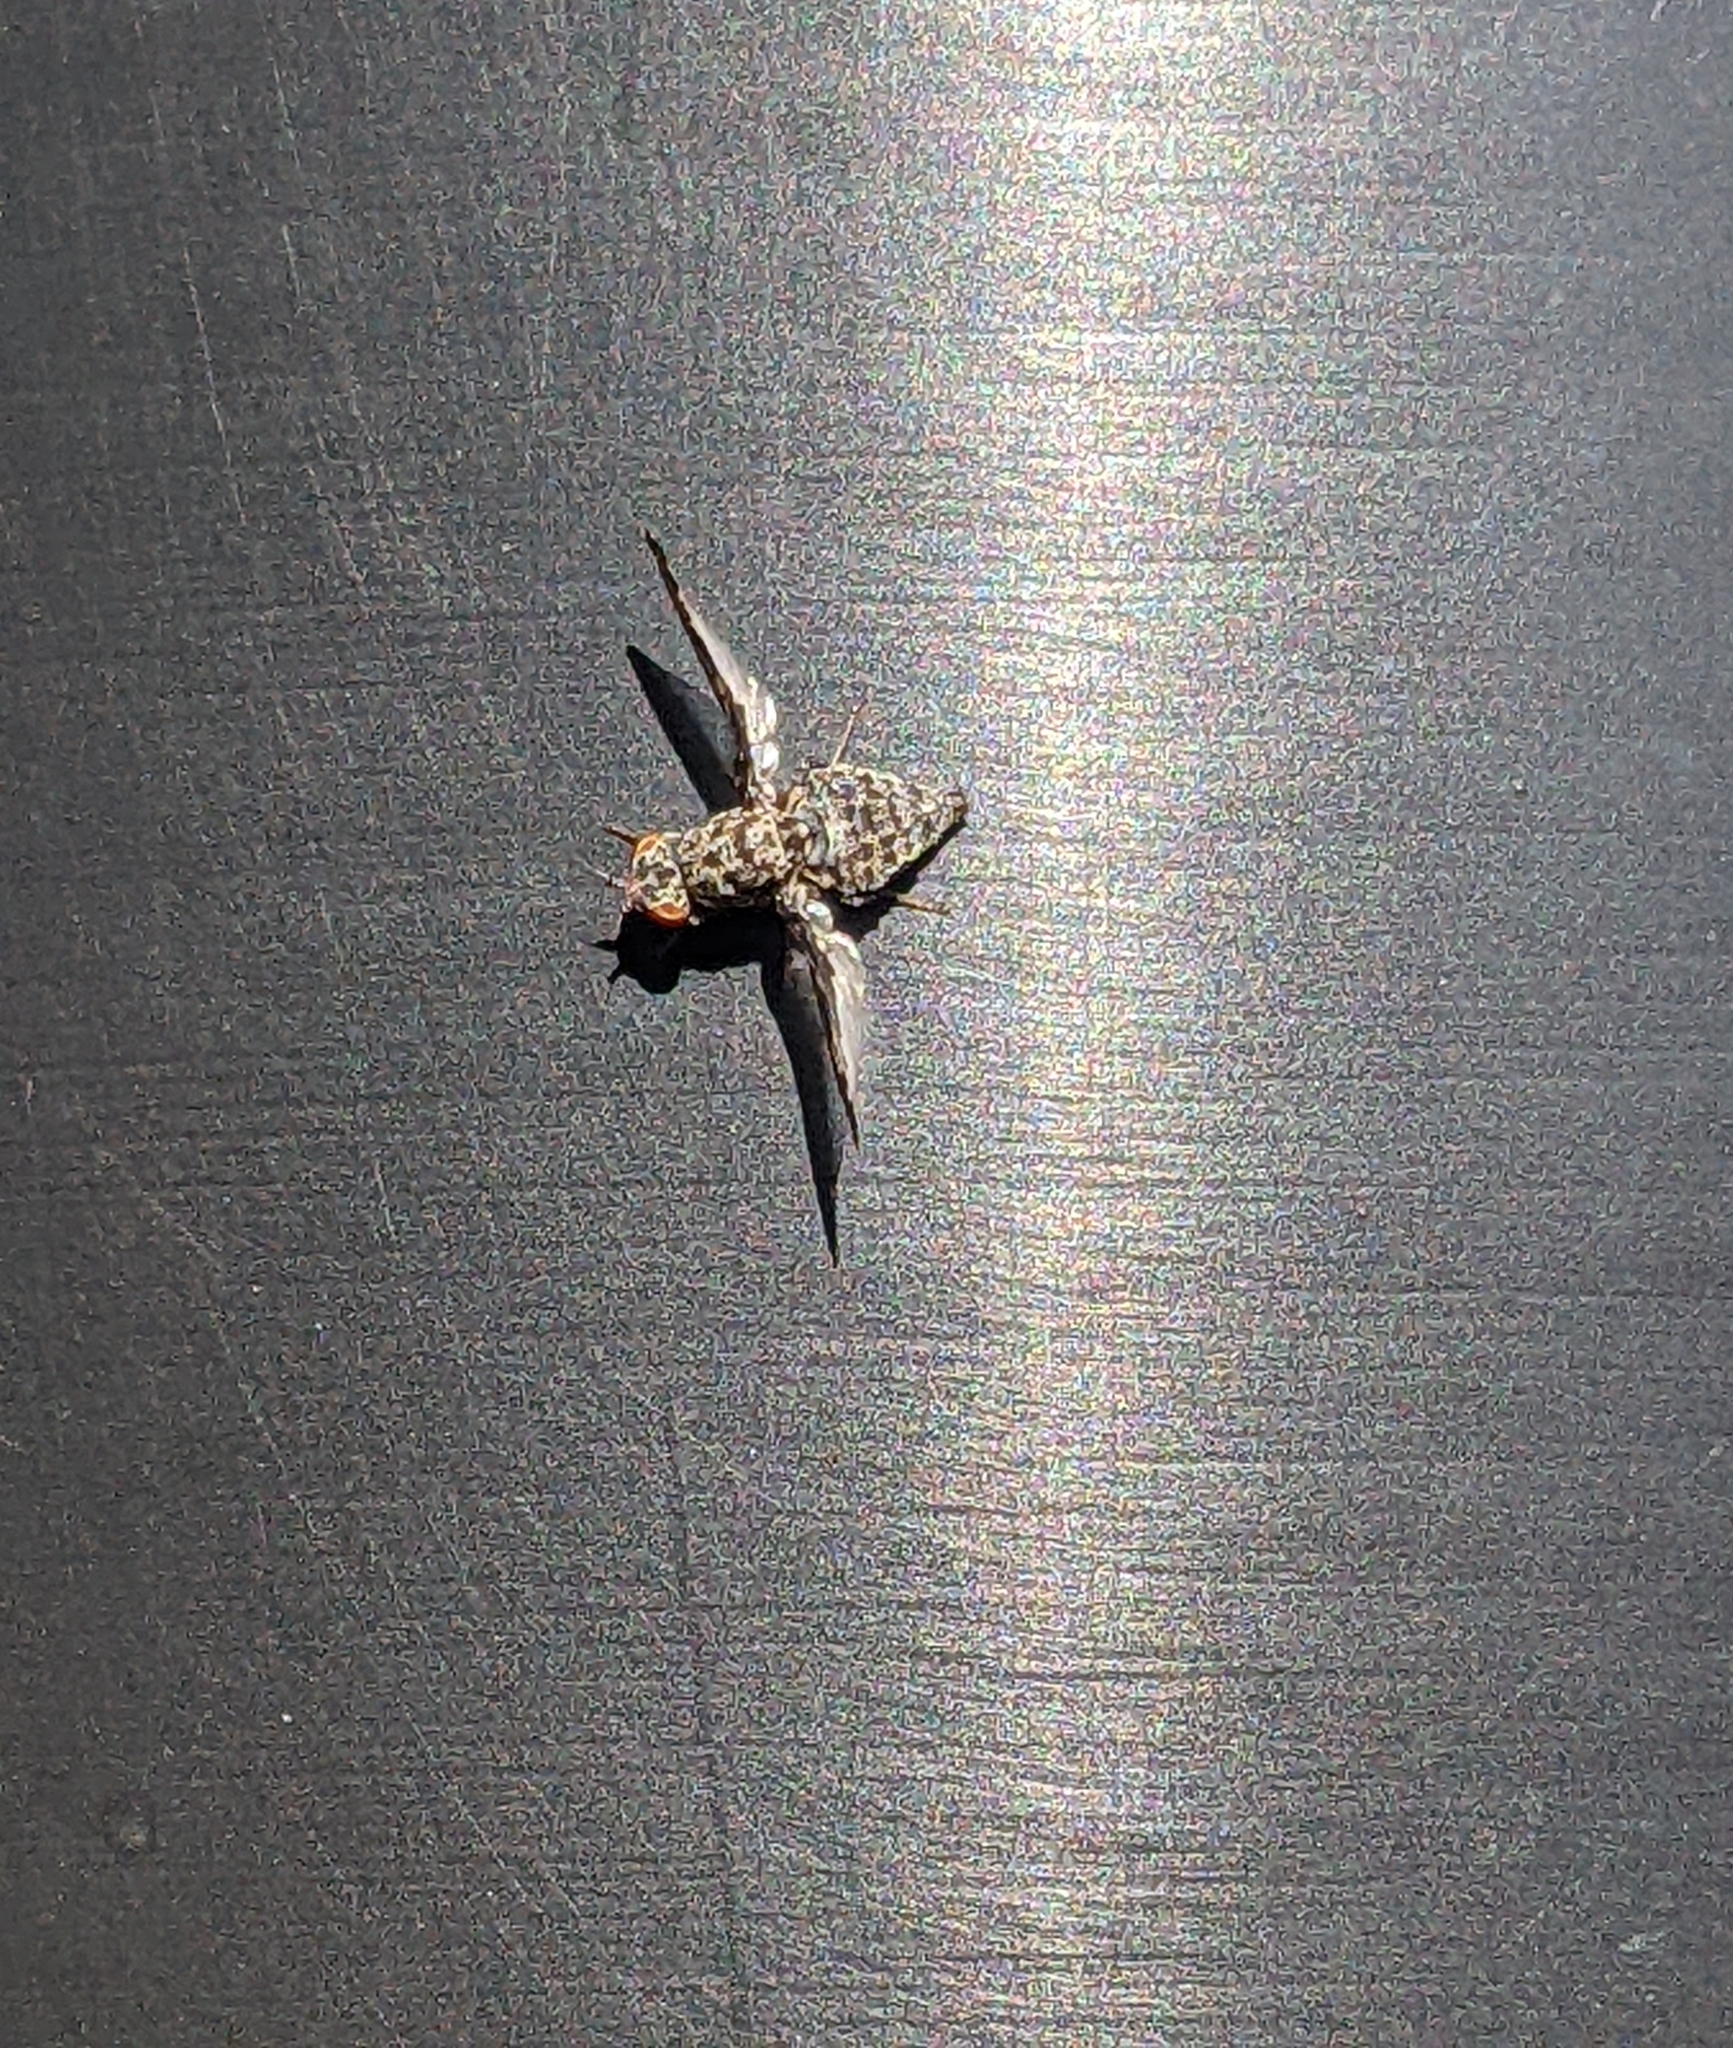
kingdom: Animalia
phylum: Arthropoda
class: Insecta
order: Diptera
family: Ulidiidae
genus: Callopistromyia
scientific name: Callopistromyia strigula
